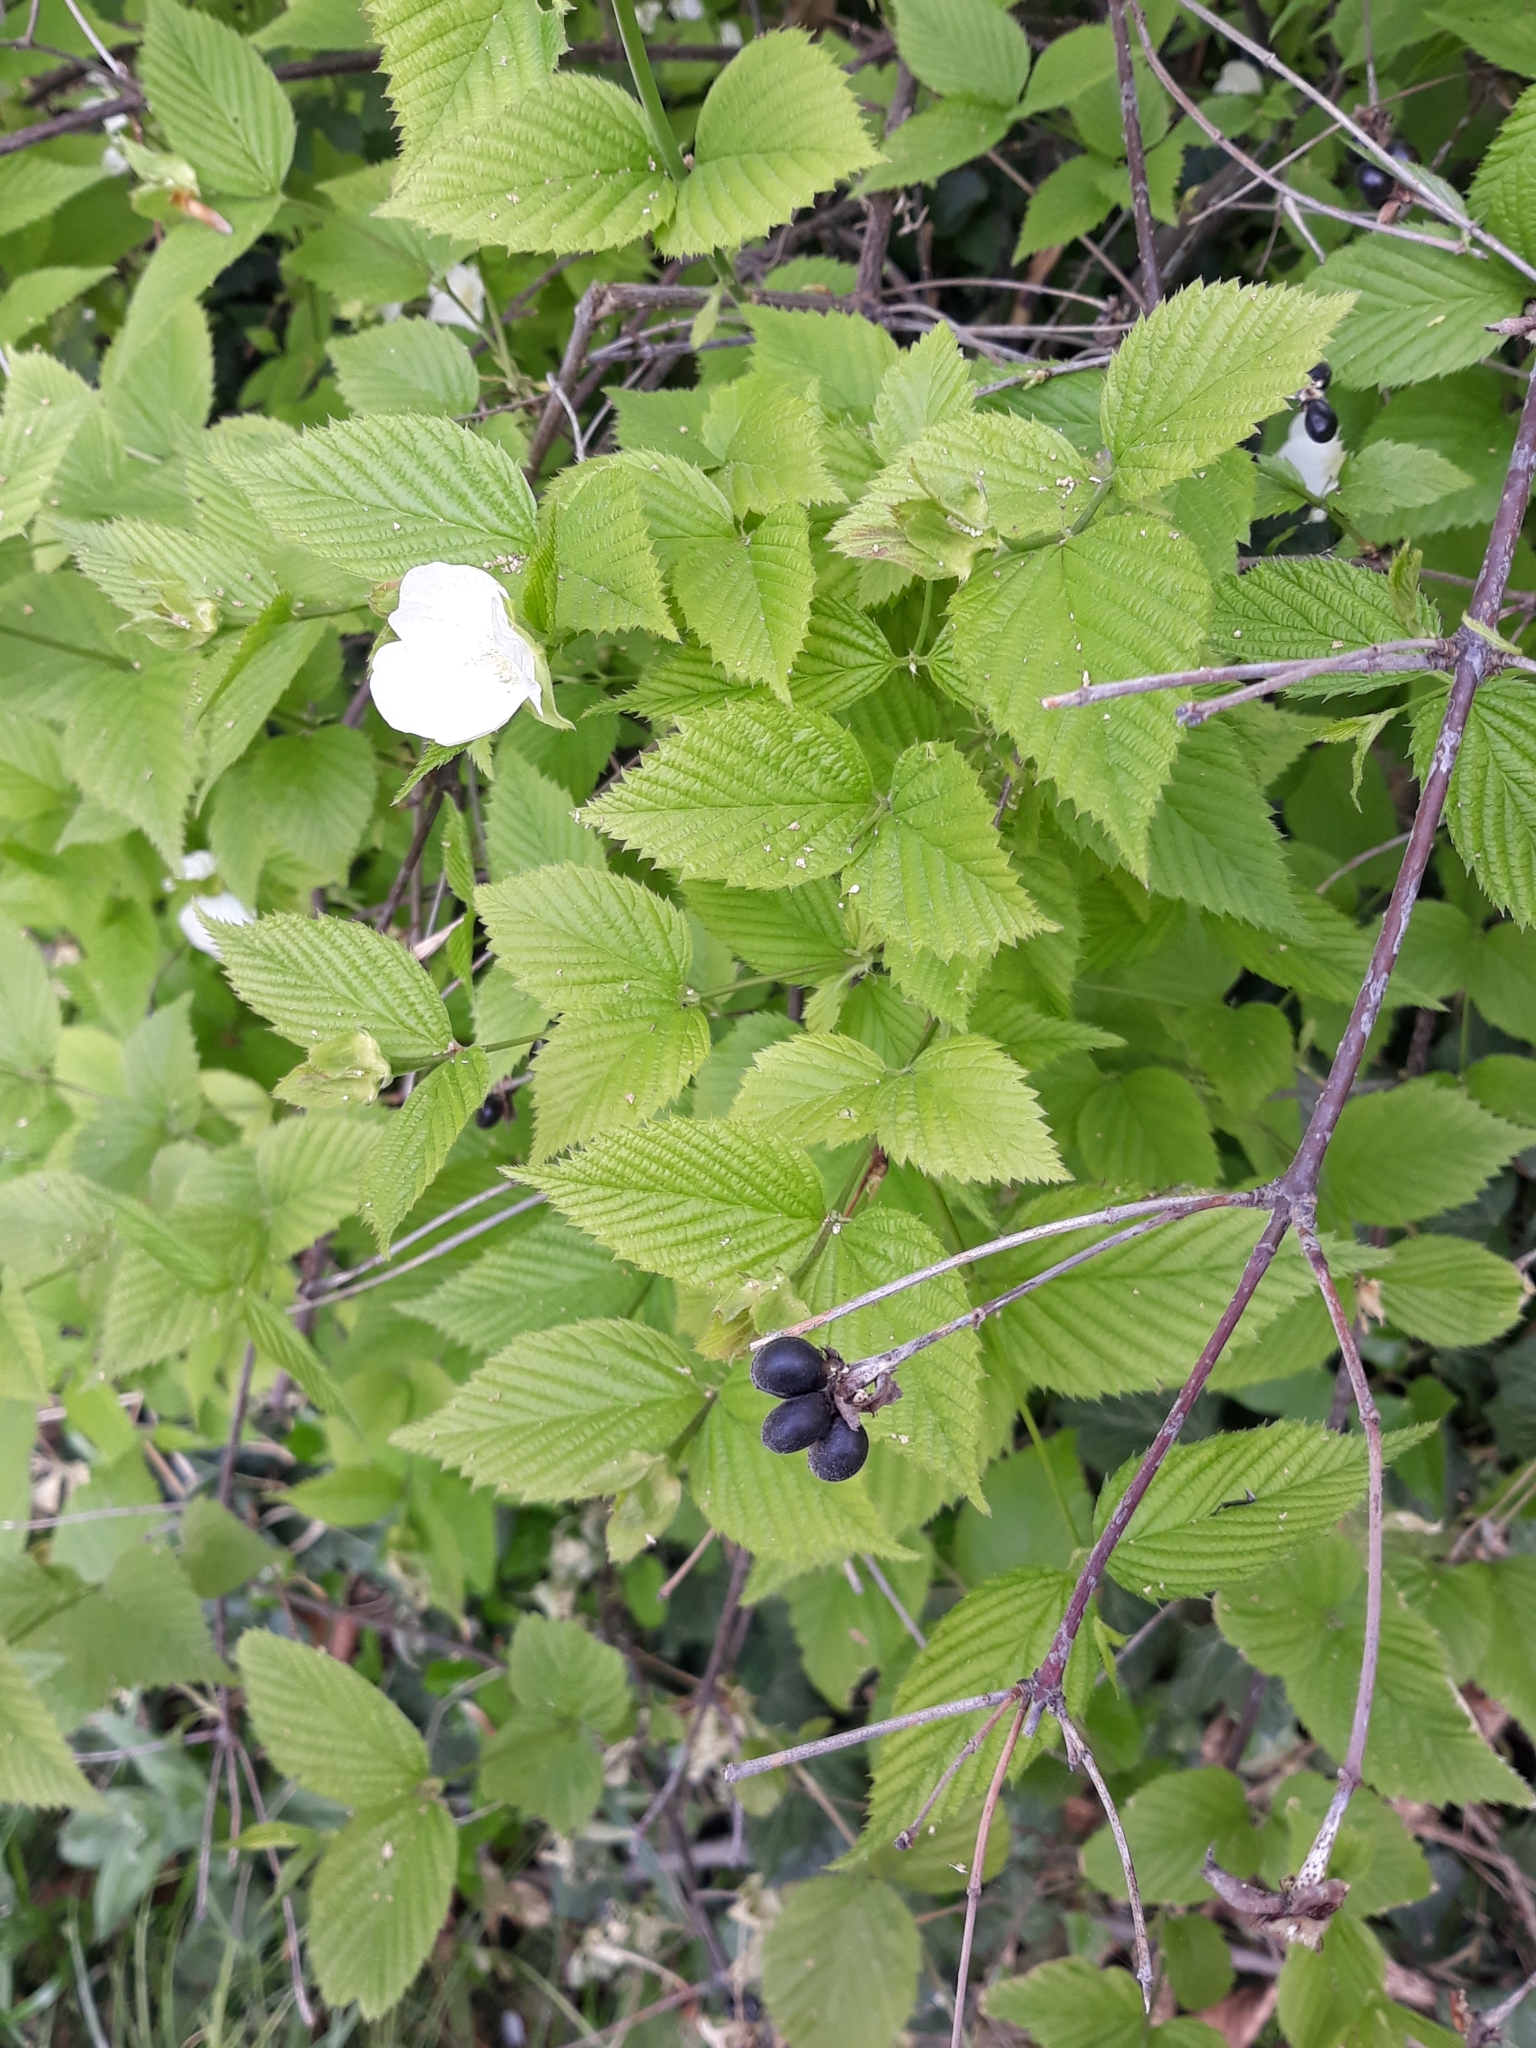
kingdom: Plantae
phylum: Tracheophyta
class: Magnoliopsida
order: Rosales
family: Rosaceae
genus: Rhodotypos
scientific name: Rhodotypos scandens
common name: Jetbead
